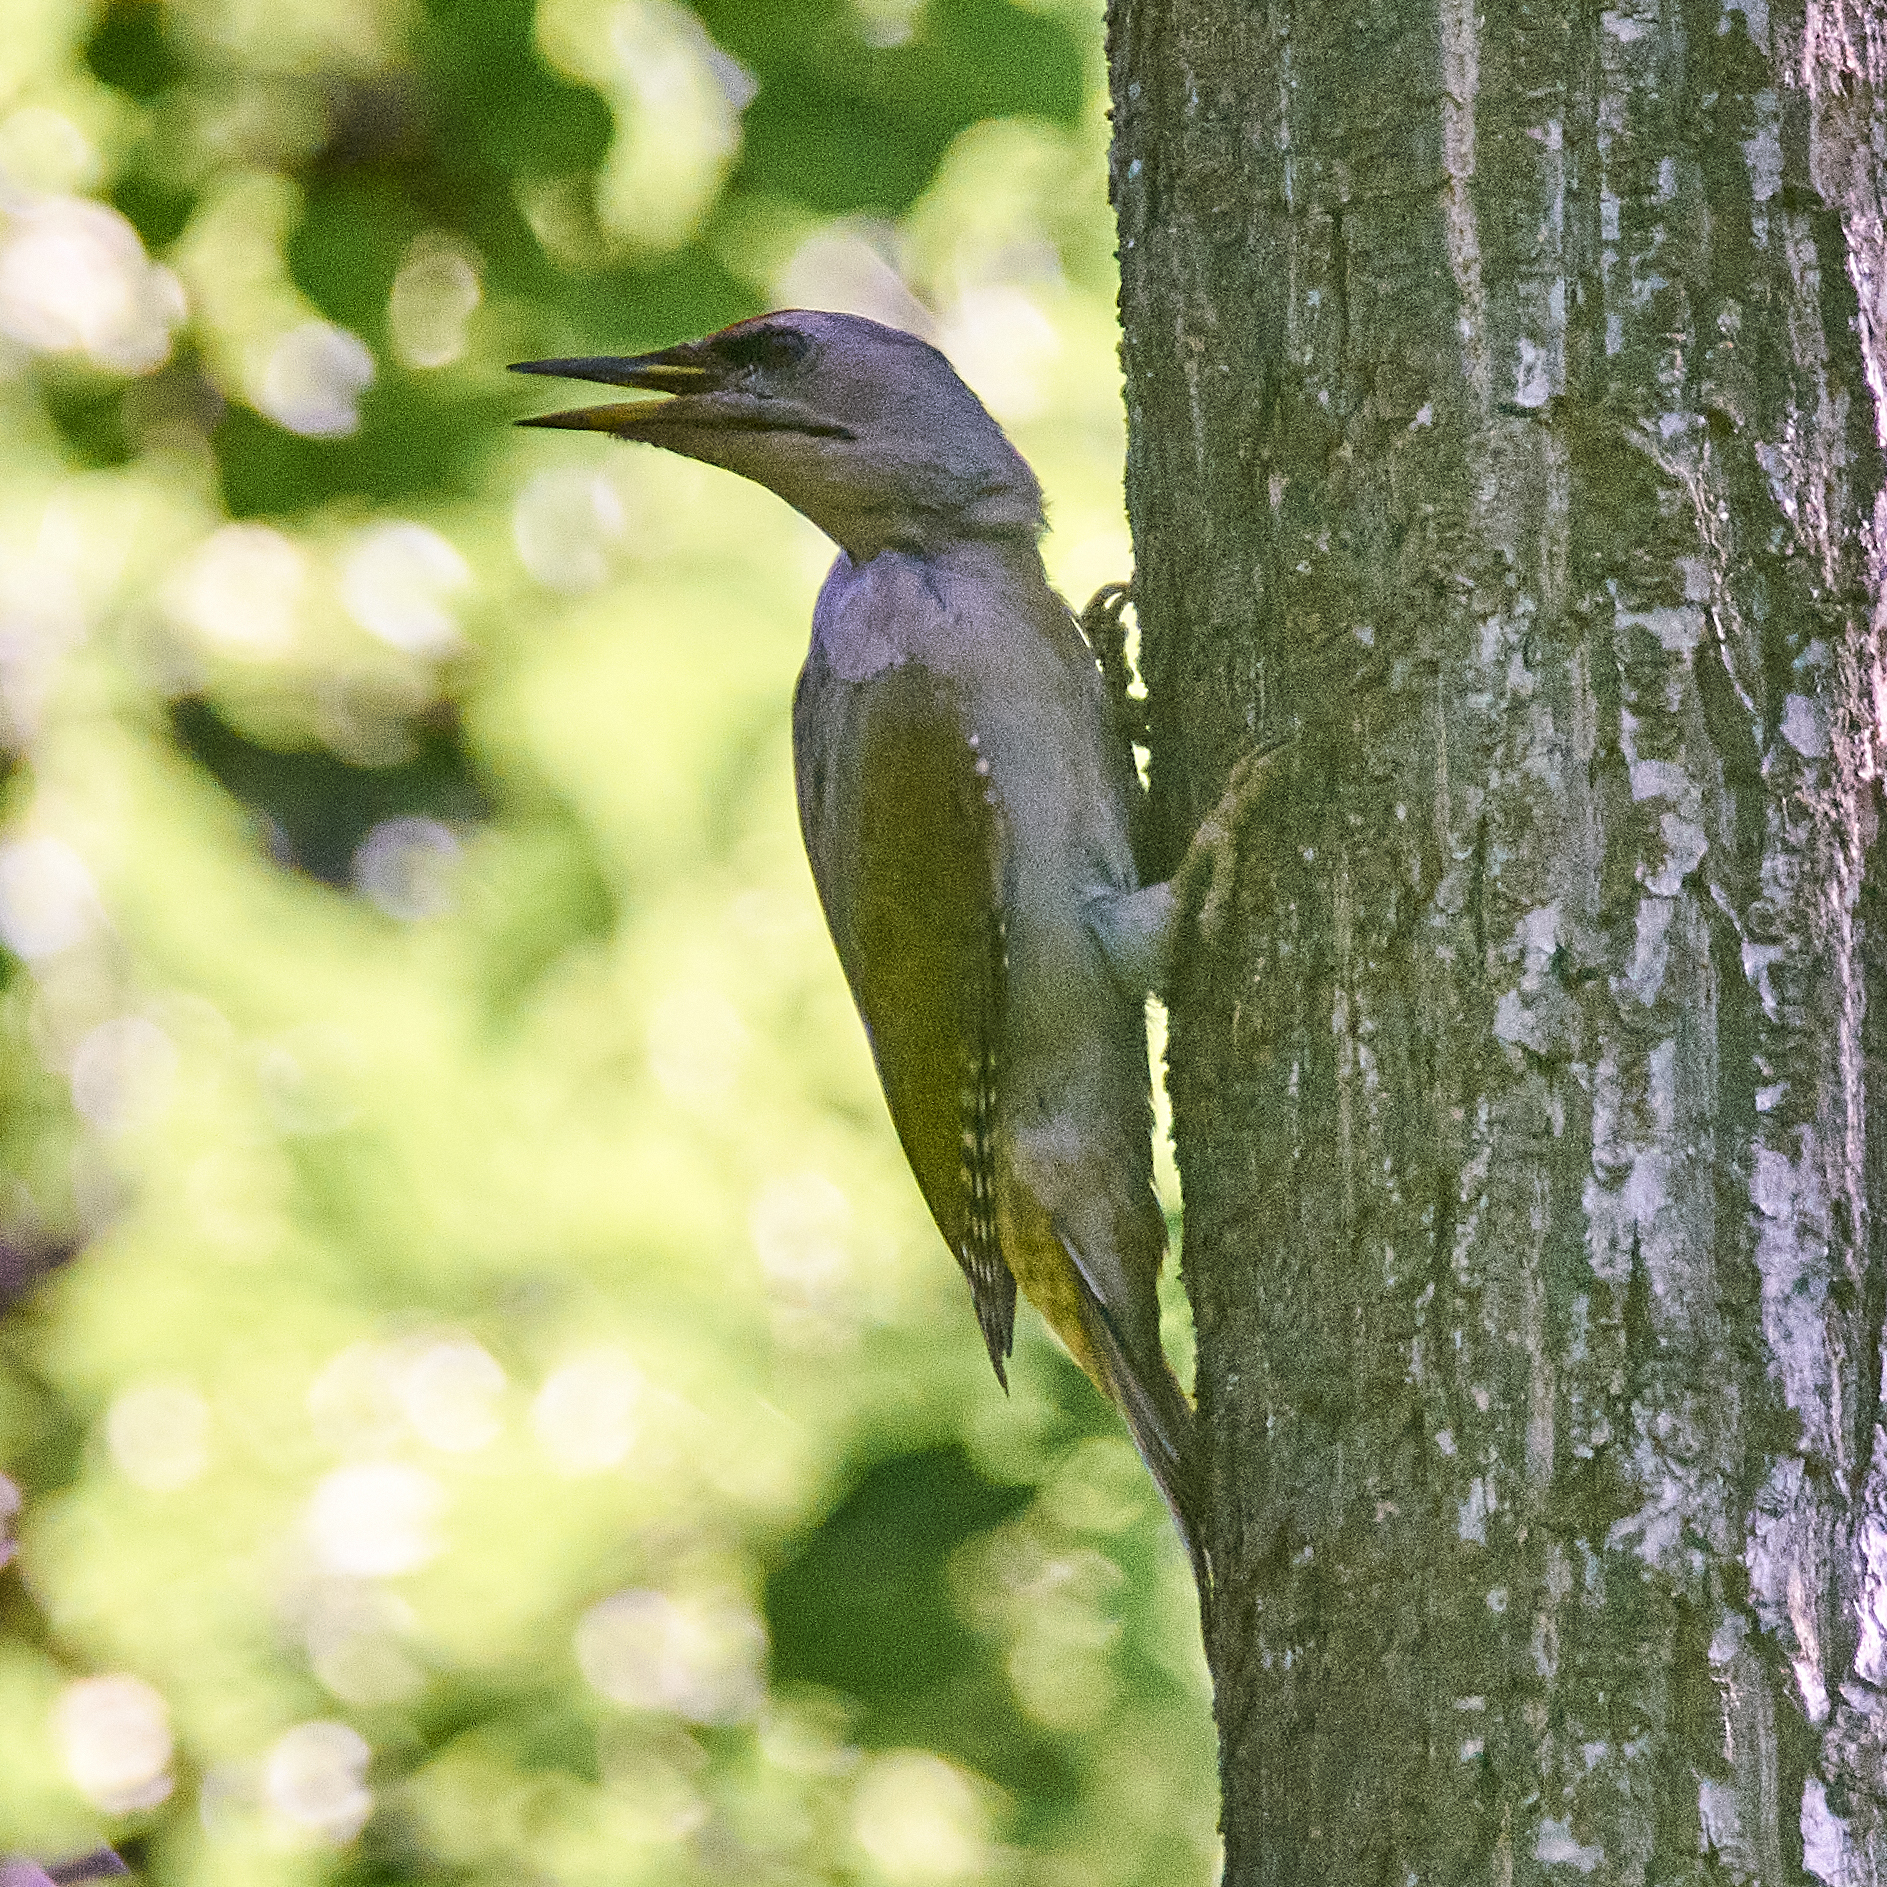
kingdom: Animalia
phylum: Chordata
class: Aves
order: Piciformes
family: Picidae
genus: Picus
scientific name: Picus canus
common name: Grey-headed woodpecker
